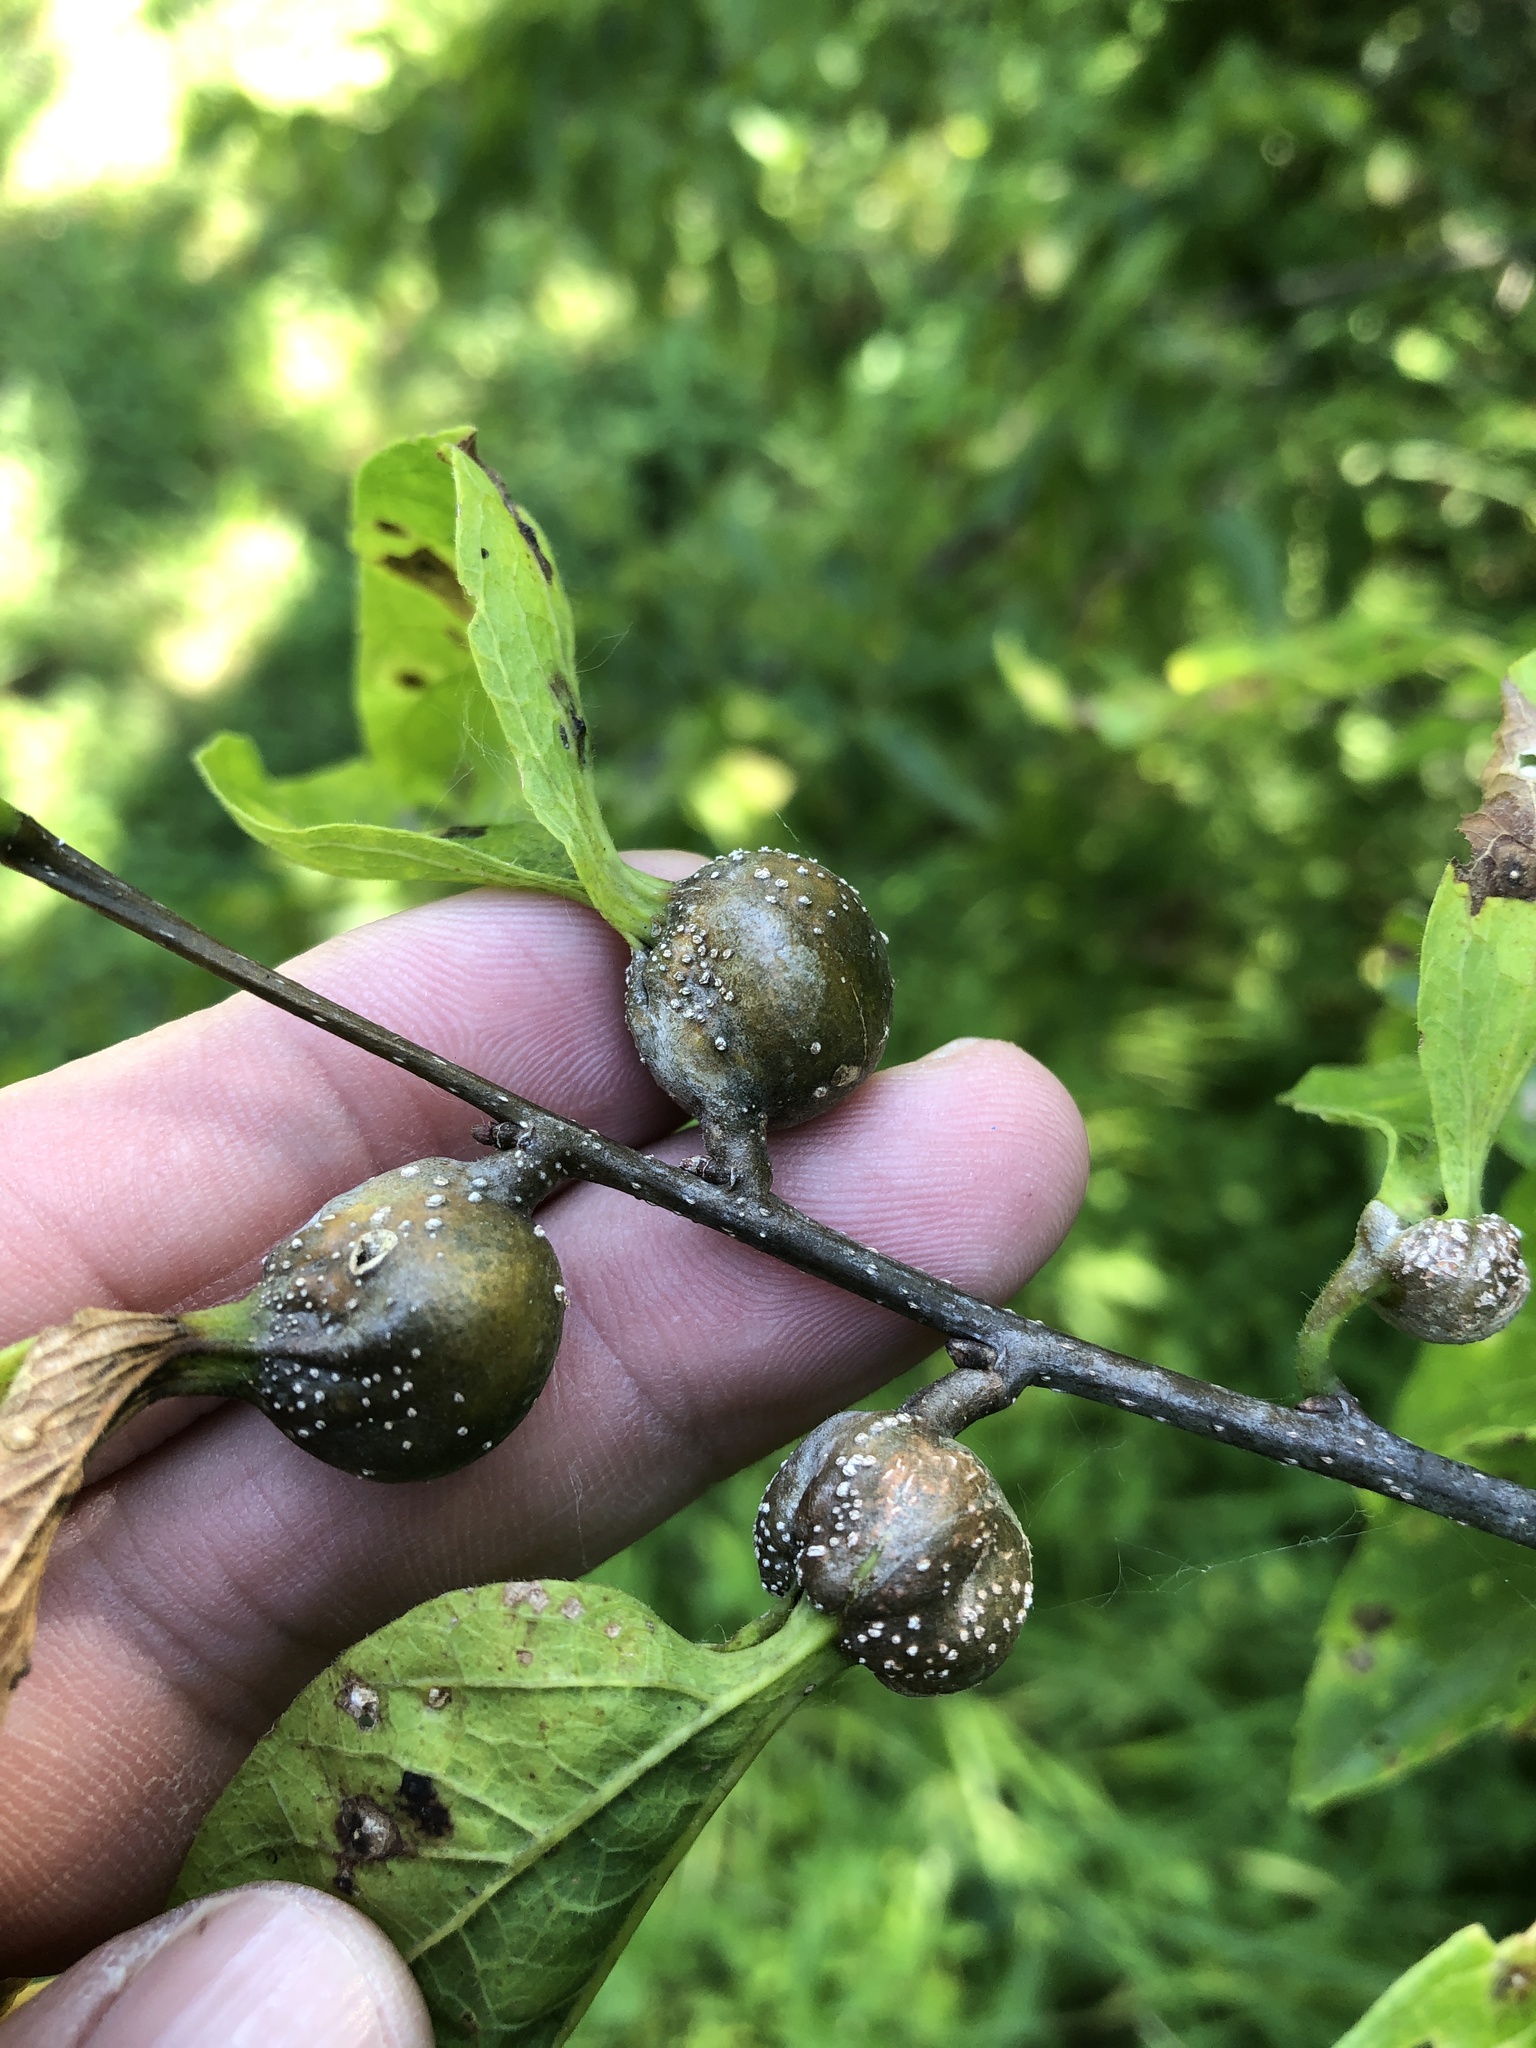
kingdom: Animalia
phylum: Arthropoda
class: Insecta
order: Hemiptera
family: Aphalaridae
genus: Pachypsylla
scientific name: Pachypsylla venusta
